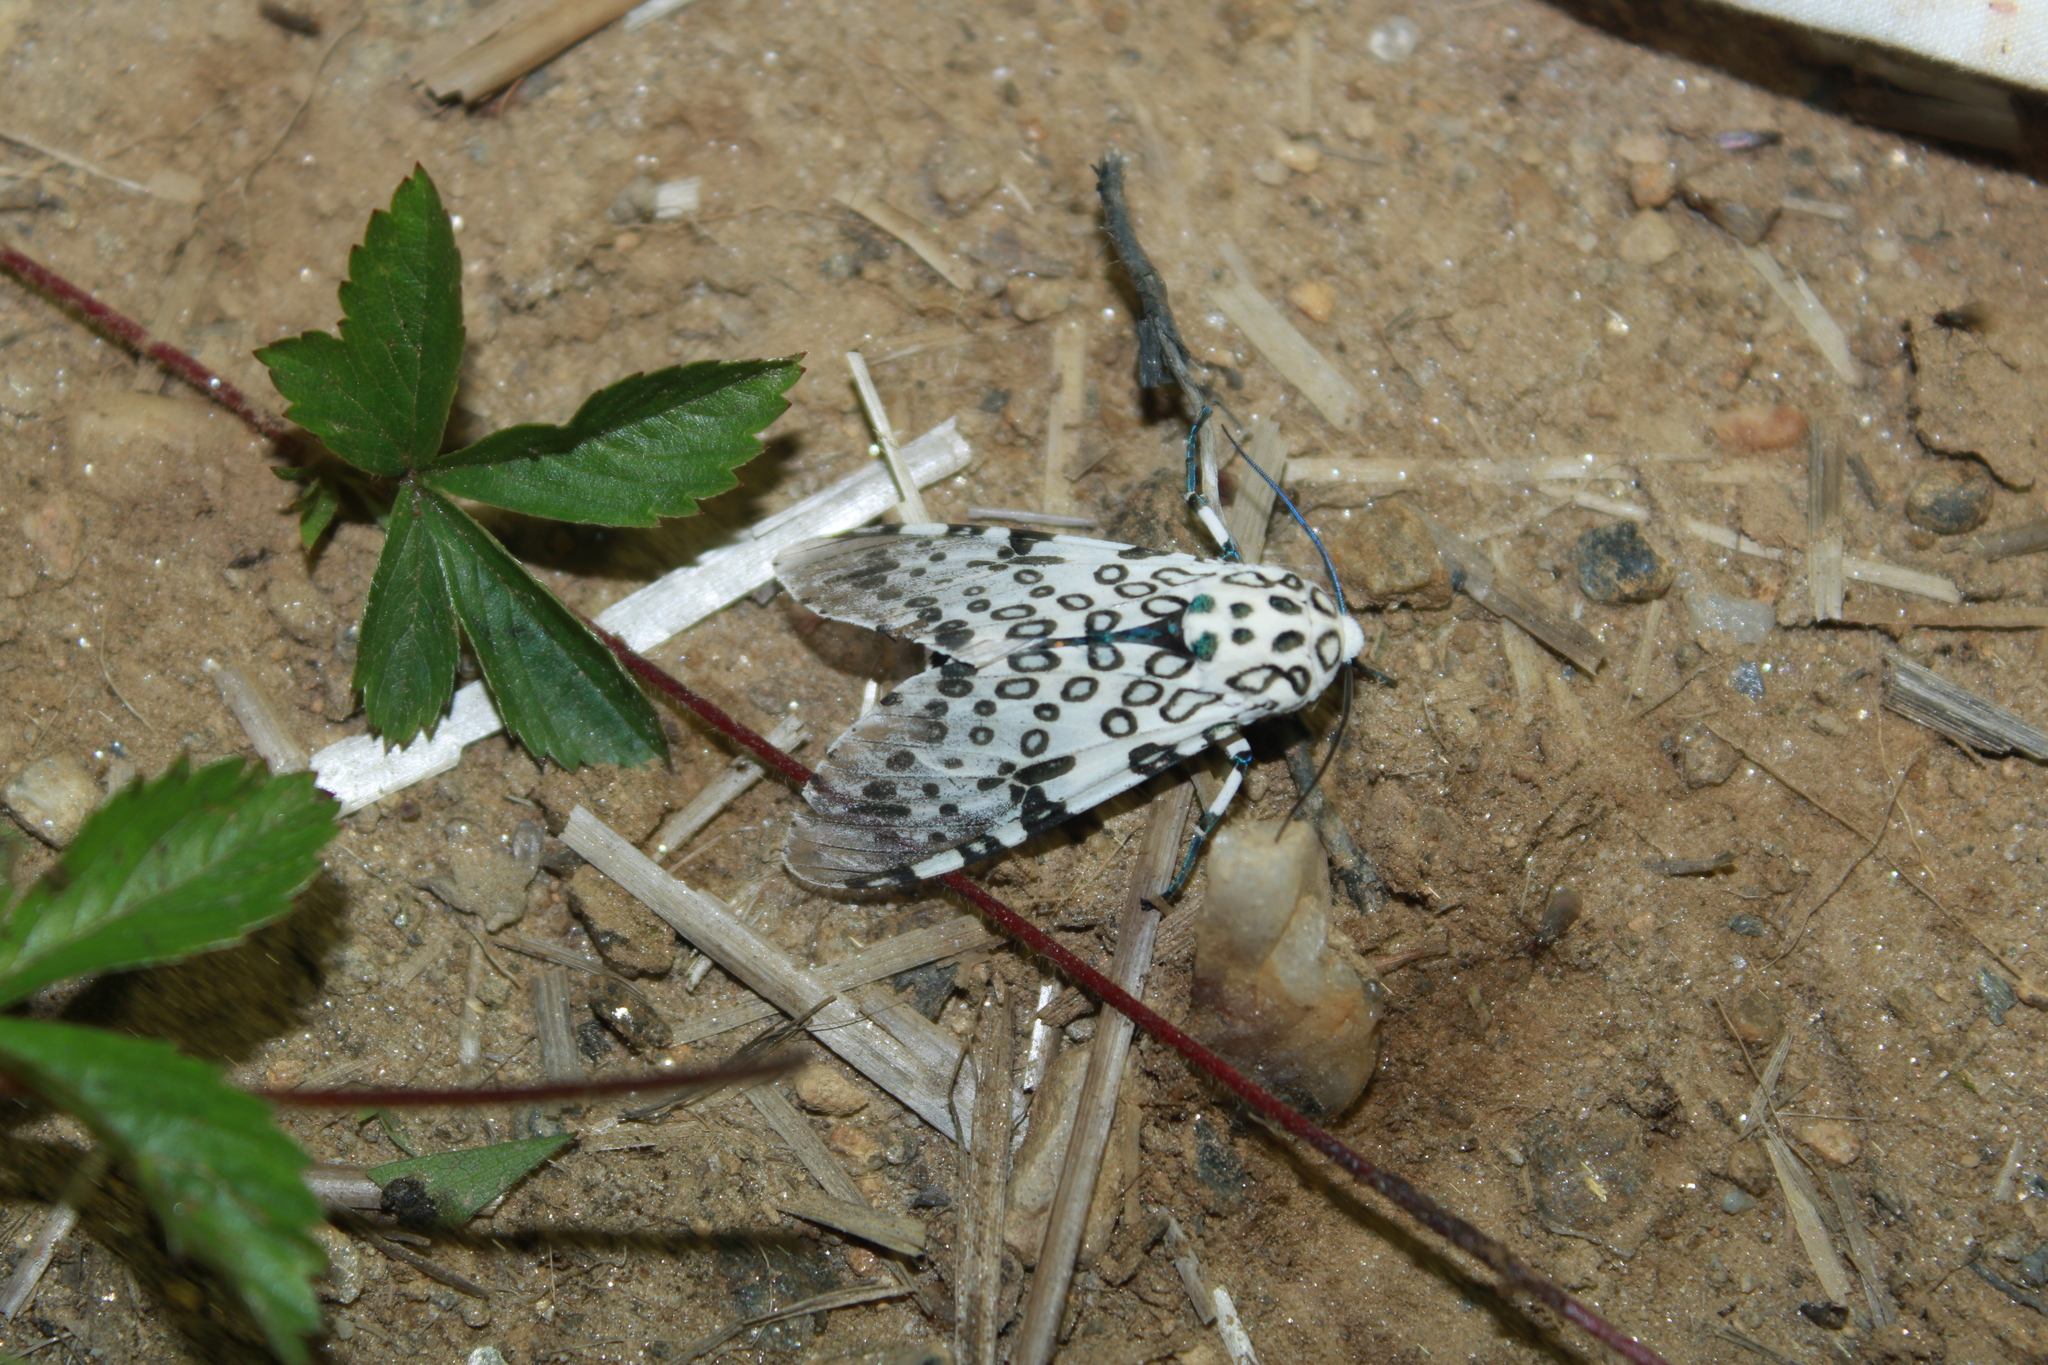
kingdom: Animalia
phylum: Arthropoda
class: Insecta
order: Lepidoptera
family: Erebidae
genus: Hypercompe
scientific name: Hypercompe scribonia
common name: Giant leopard moth
